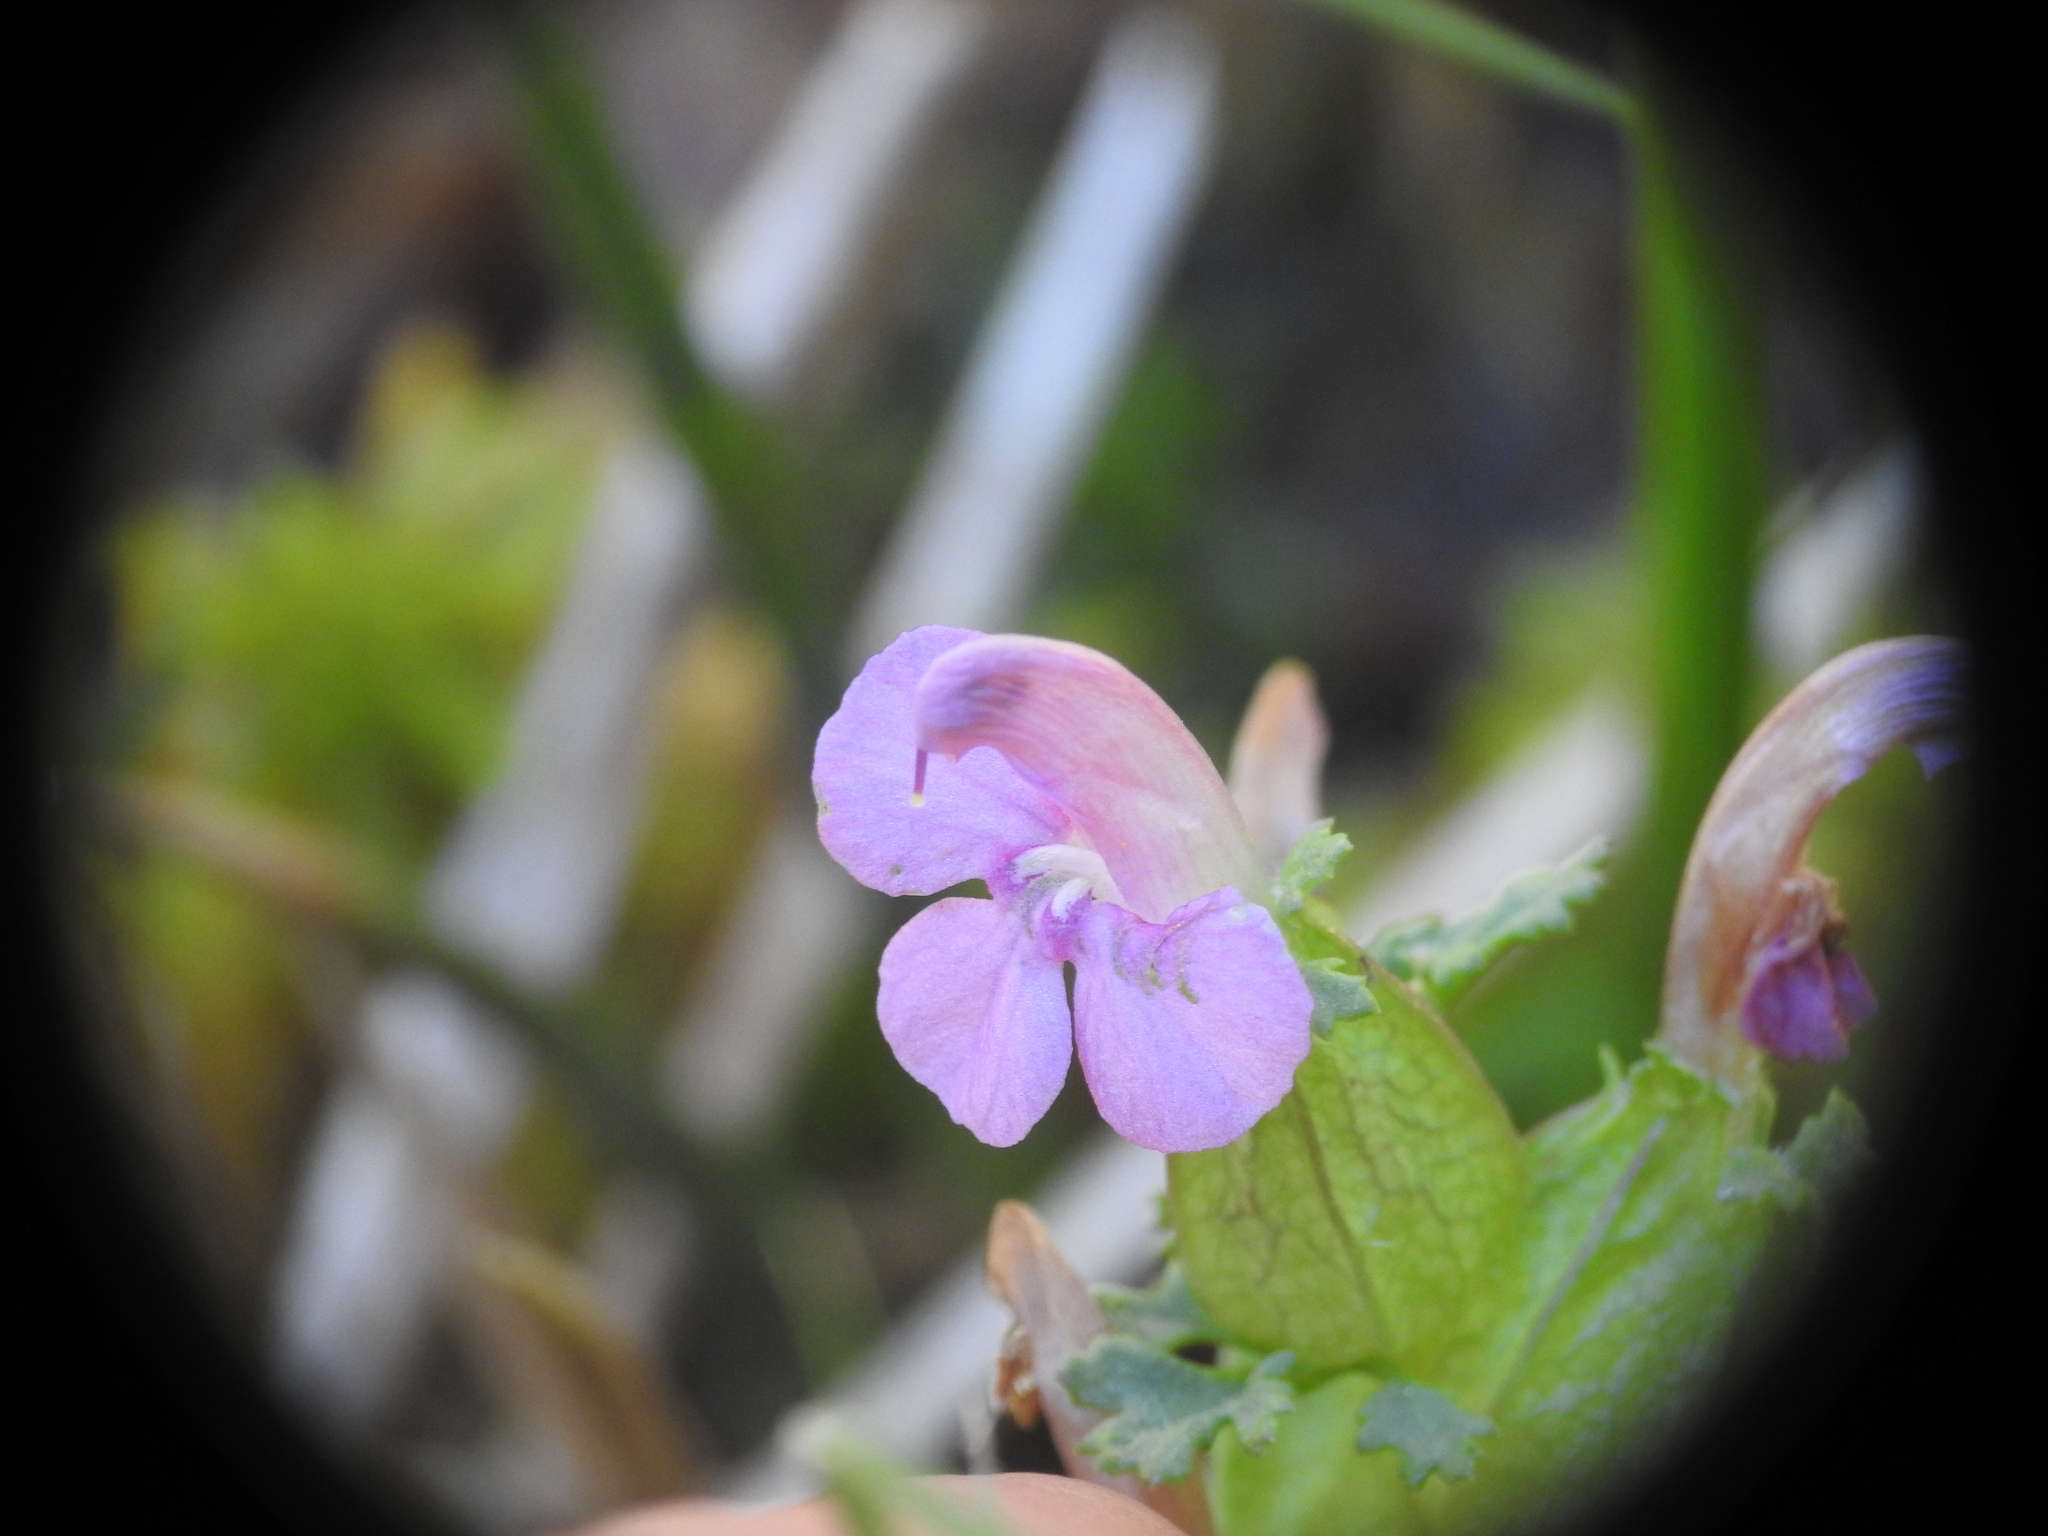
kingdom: Plantae
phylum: Tracheophyta
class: Magnoliopsida
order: Lamiales
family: Orobanchaceae
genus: Pedicularis
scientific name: Pedicularis sylvatica
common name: Lousewort
